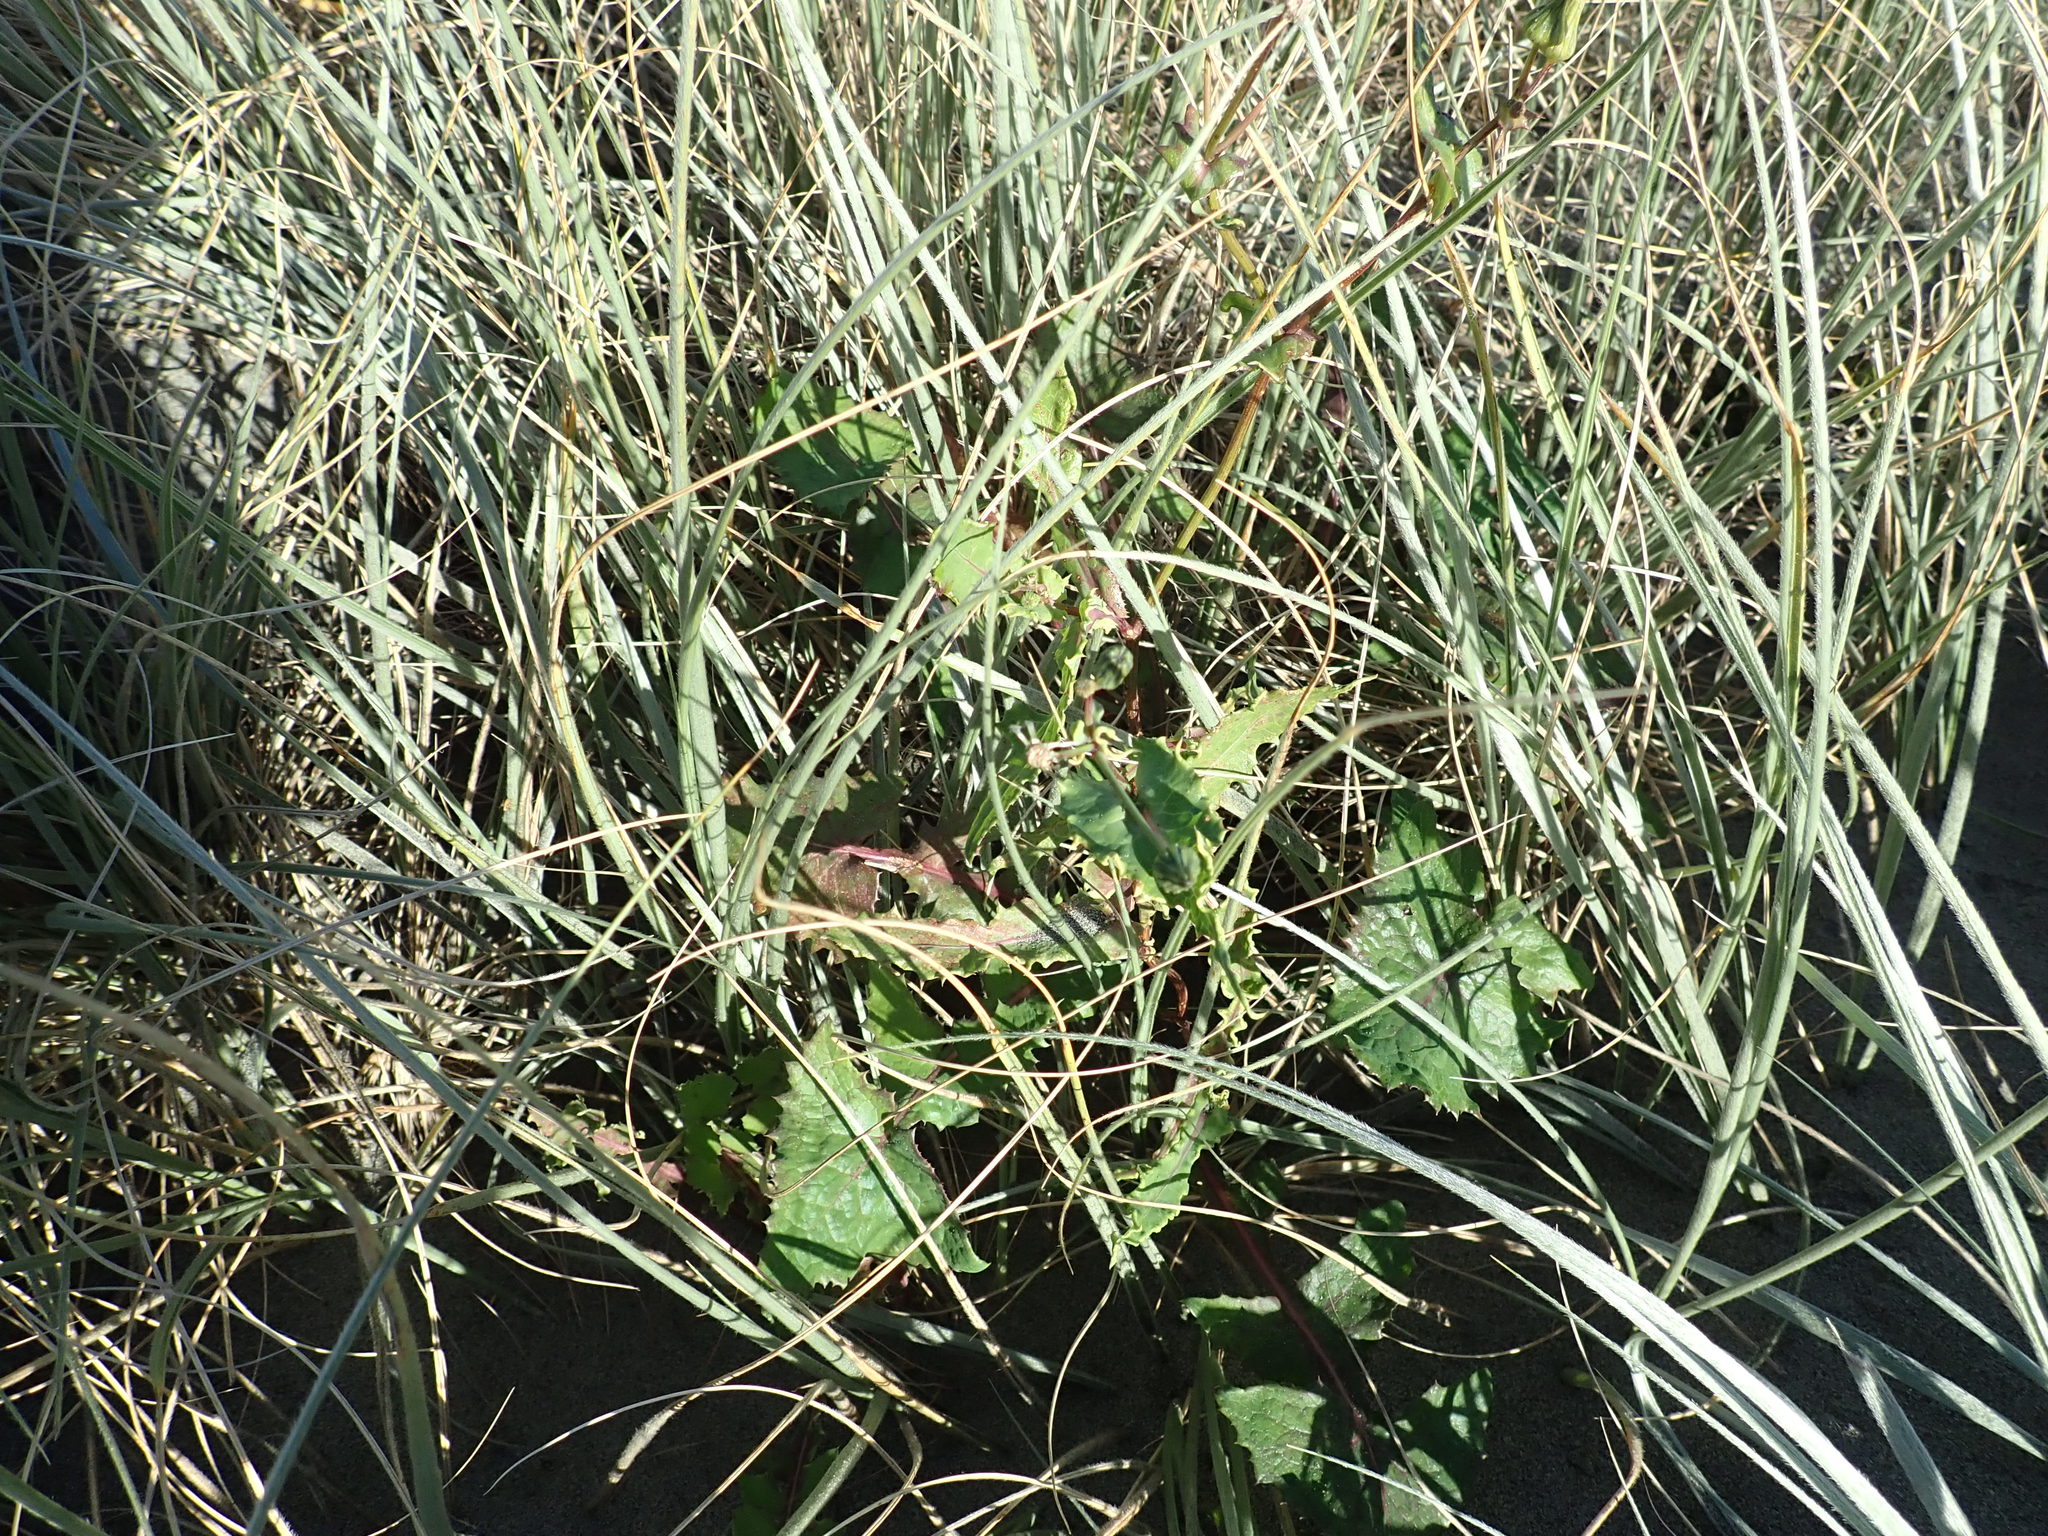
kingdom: Plantae
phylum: Tracheophyta
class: Magnoliopsida
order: Asterales
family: Asteraceae
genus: Sonchus
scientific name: Sonchus oleraceus
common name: Common sowthistle
